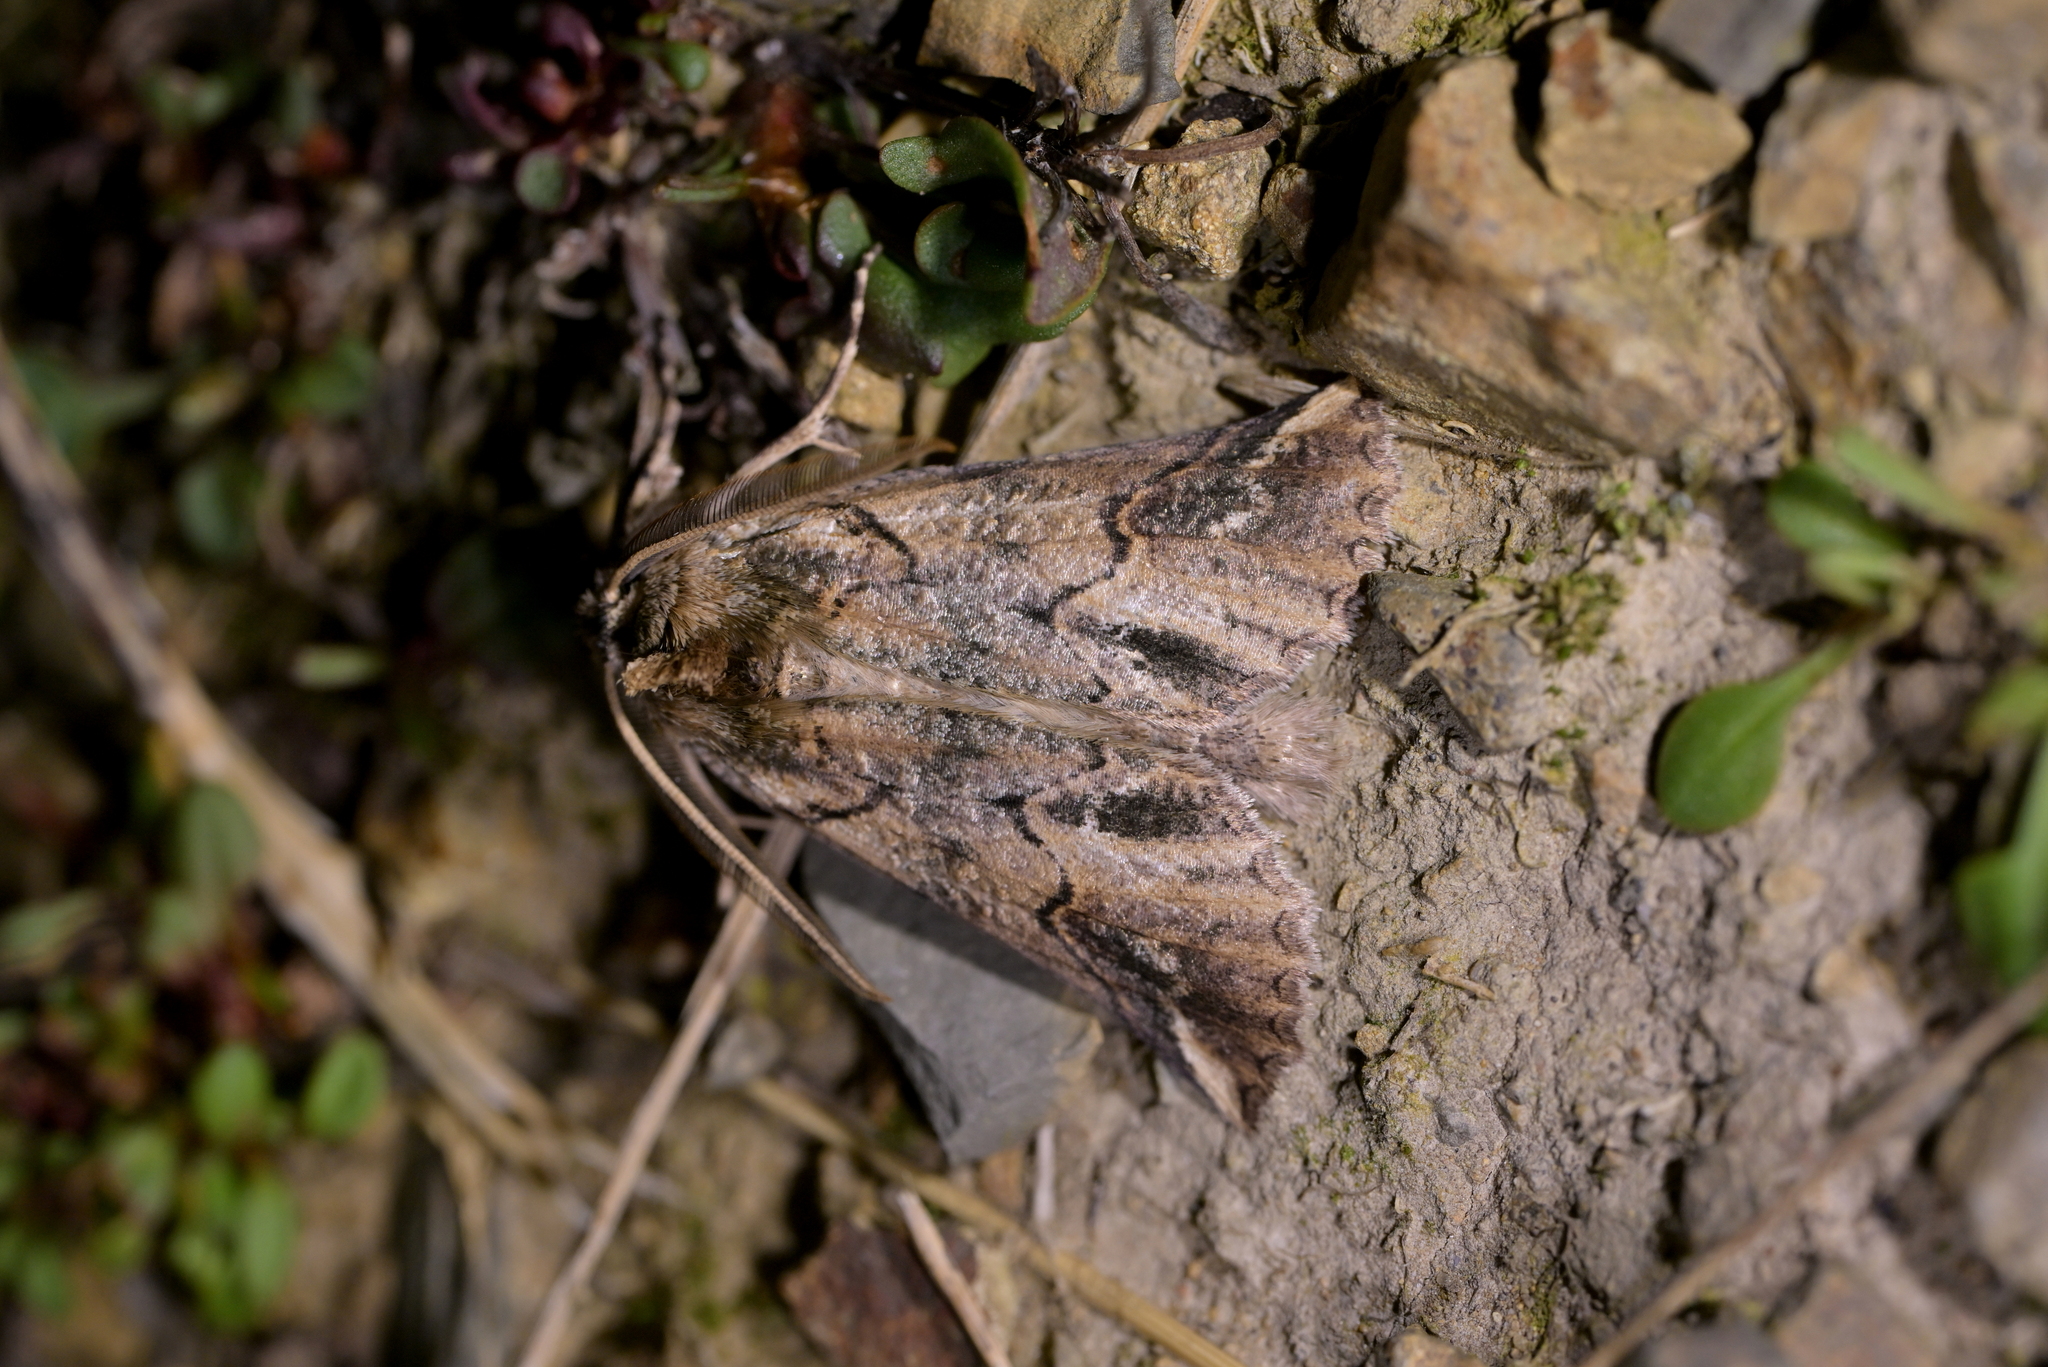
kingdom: Animalia
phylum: Arthropoda
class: Insecta
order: Lepidoptera
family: Geometridae
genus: Declana
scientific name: Declana
